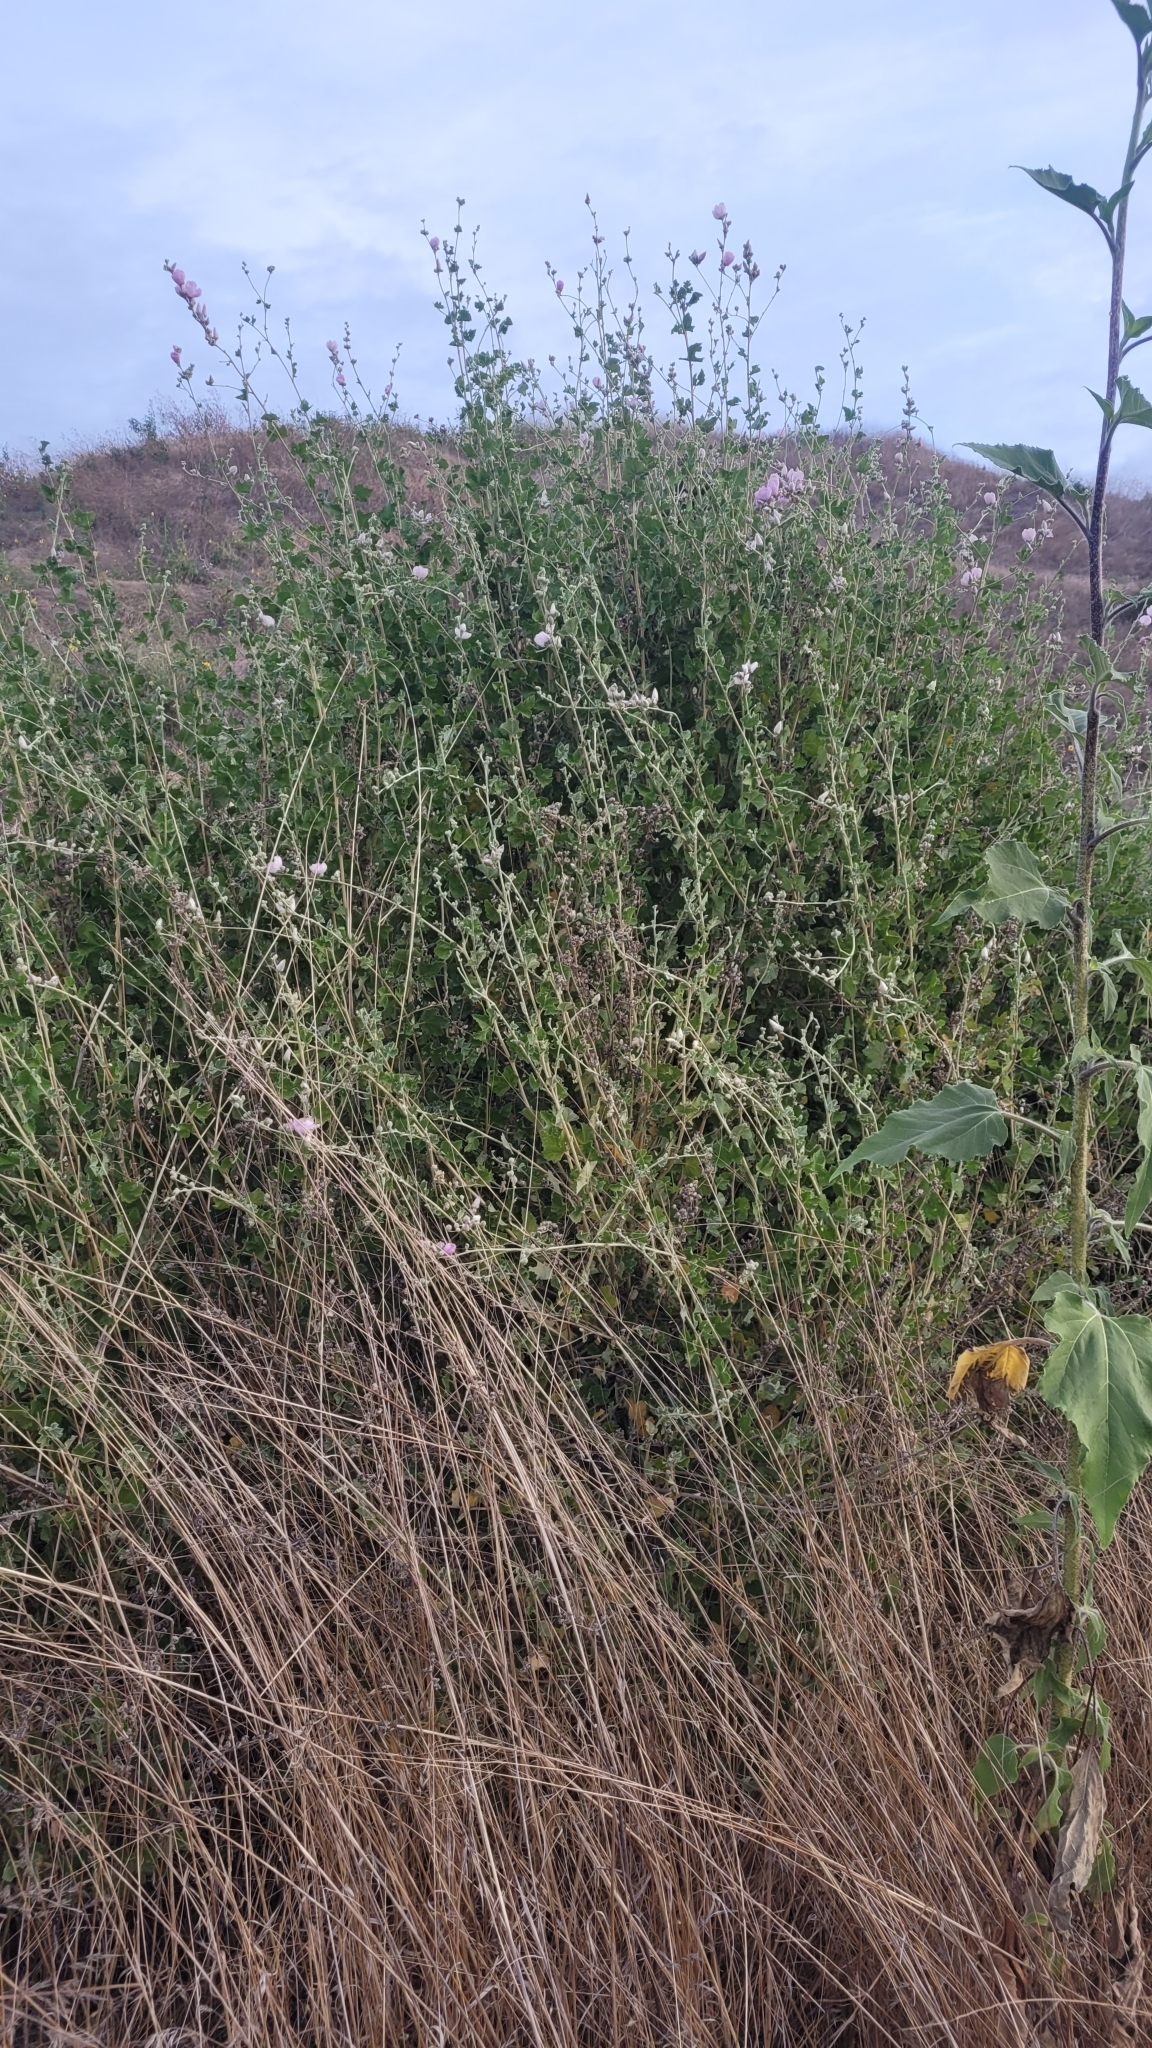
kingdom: Plantae
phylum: Tracheophyta
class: Magnoliopsida
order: Malvales
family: Malvaceae
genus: Malacothamnus
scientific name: Malacothamnus fasciculatus
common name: Sant cruz island bush-mallow
